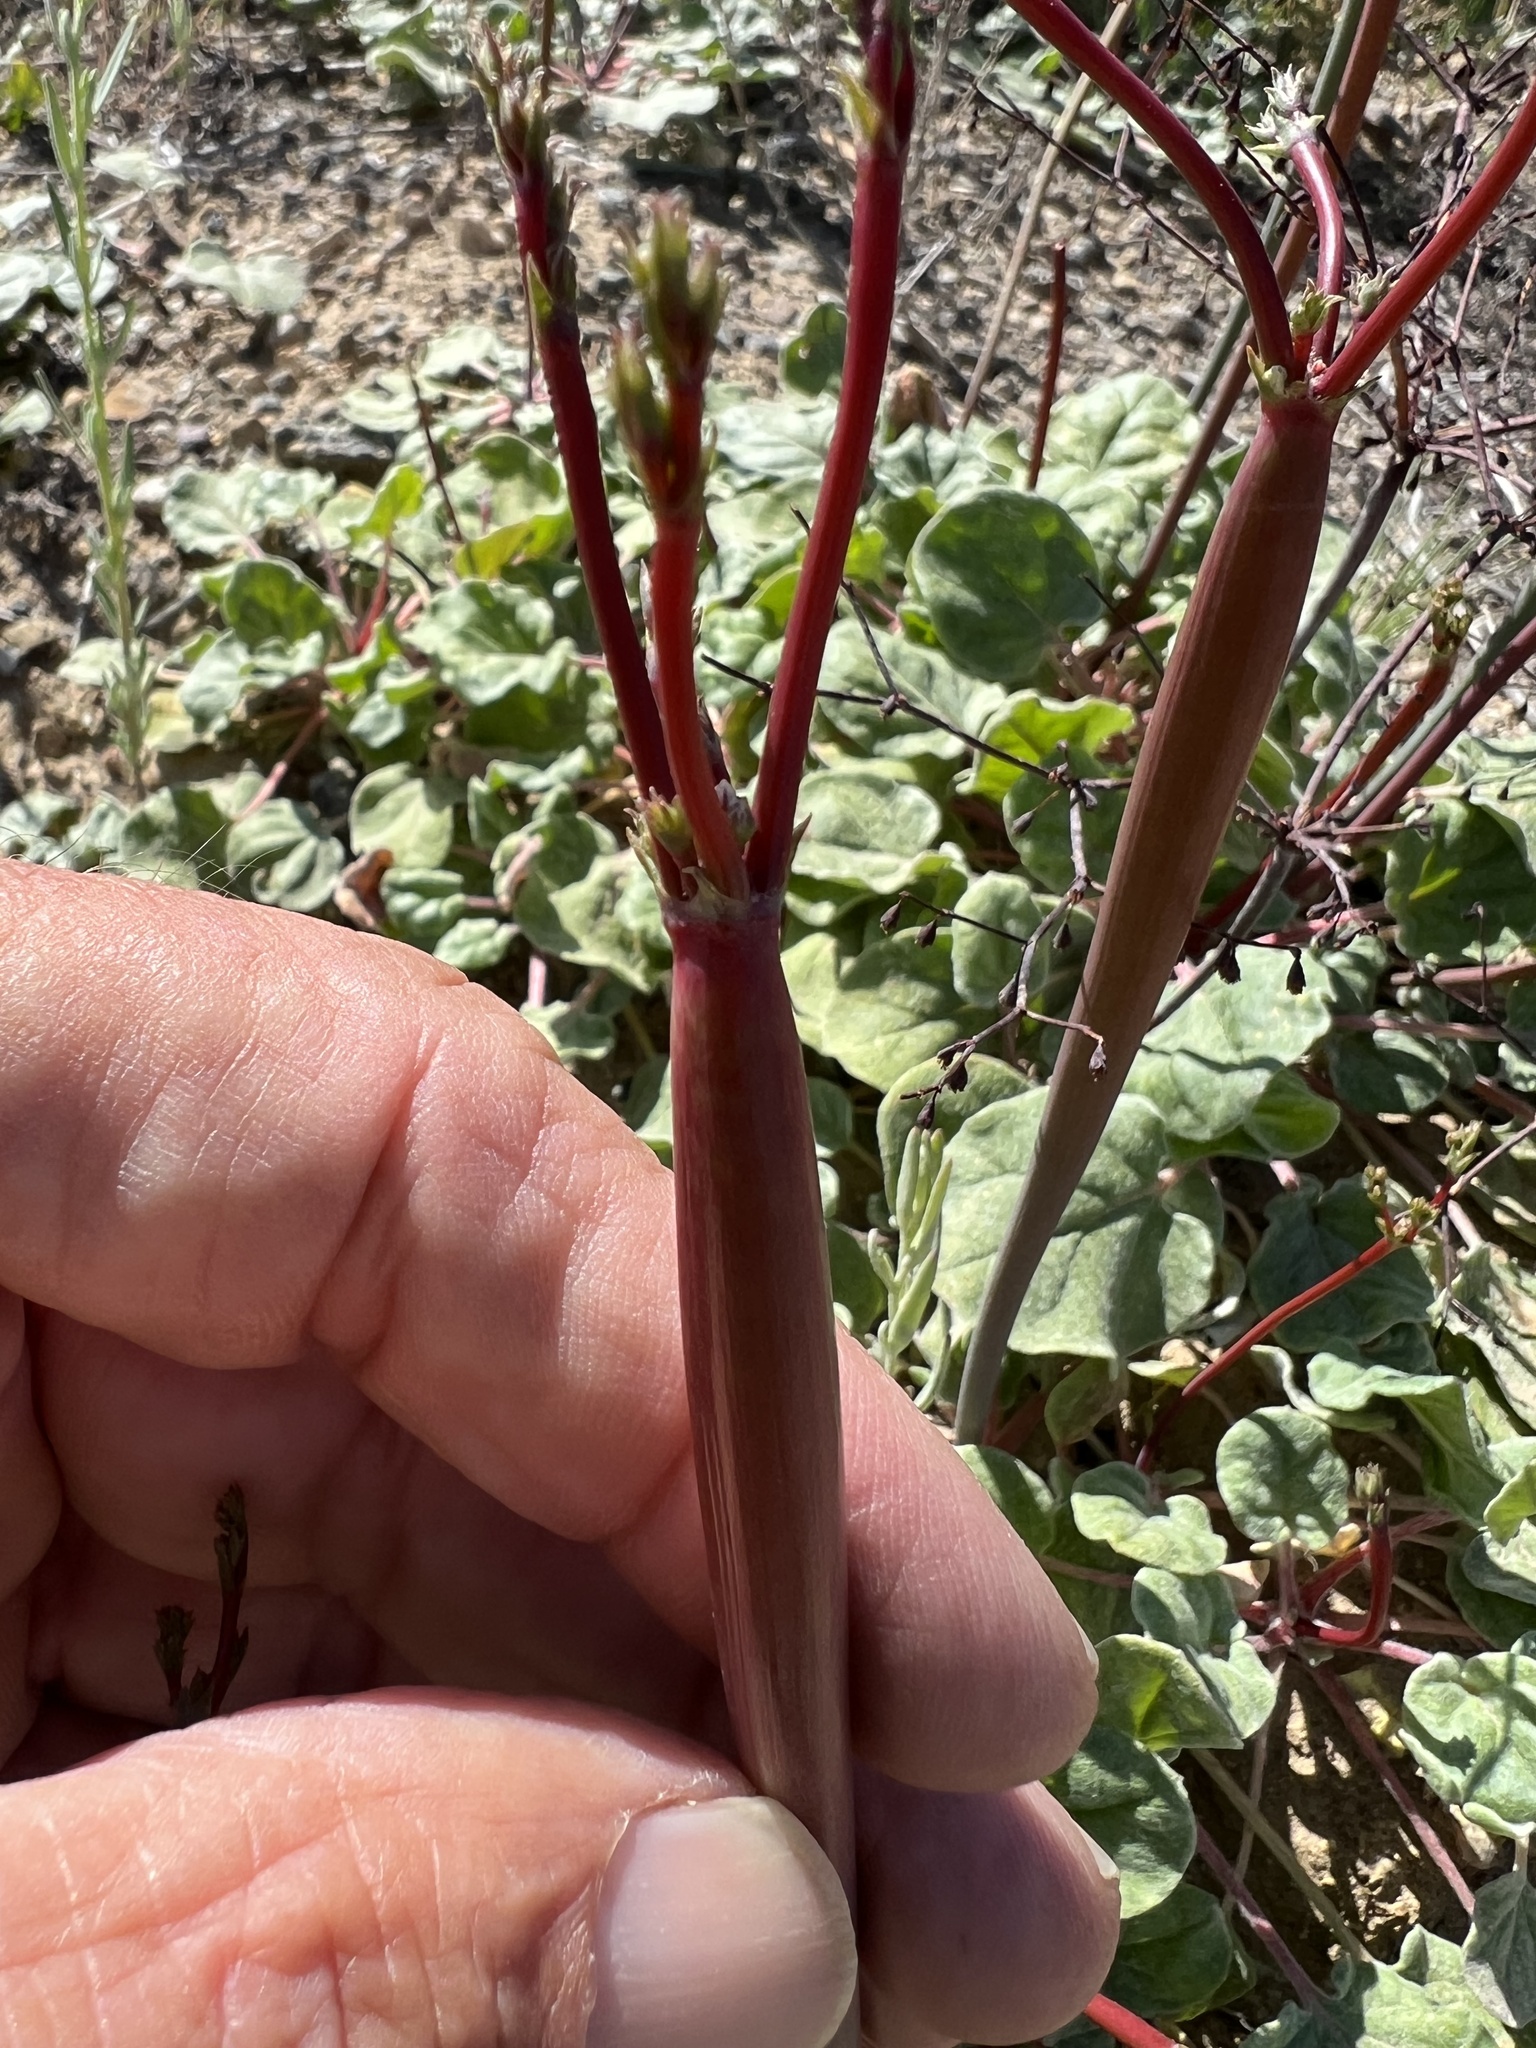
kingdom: Plantae
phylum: Tracheophyta
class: Magnoliopsida
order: Caryophyllales
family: Polygonaceae
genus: Eriogonum
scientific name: Eriogonum deflexum
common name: Skeleton-weed
